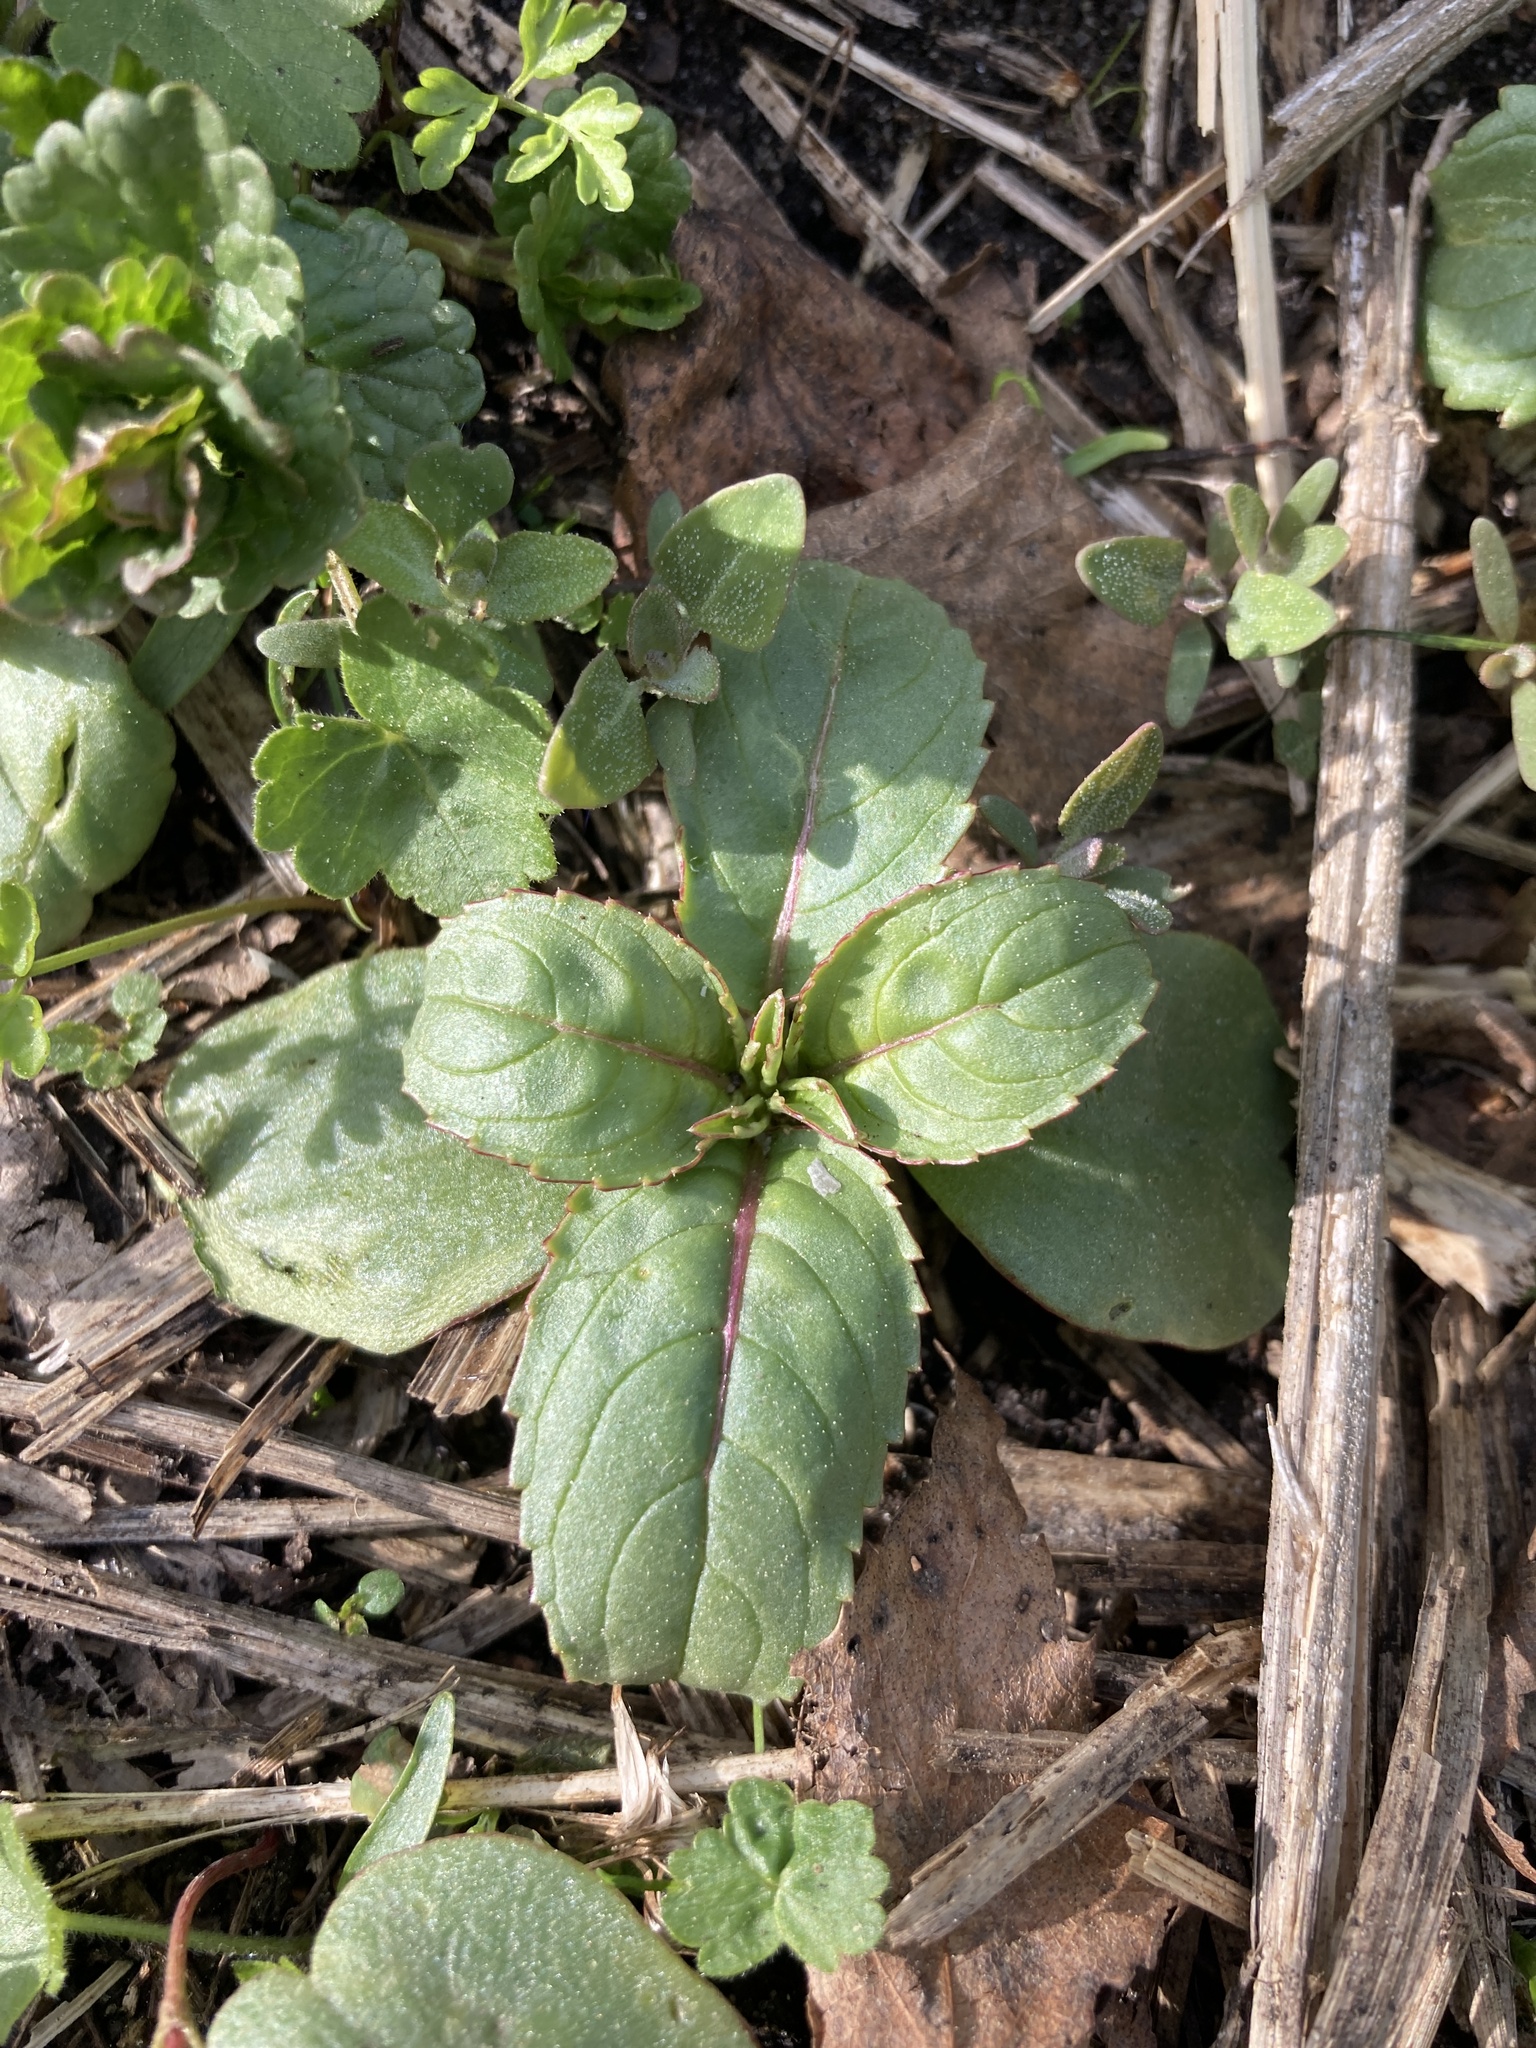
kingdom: Plantae
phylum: Tracheophyta
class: Magnoliopsida
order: Ericales
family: Balsaminaceae
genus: Impatiens
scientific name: Impatiens glandulifera
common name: Himalayan balsam
